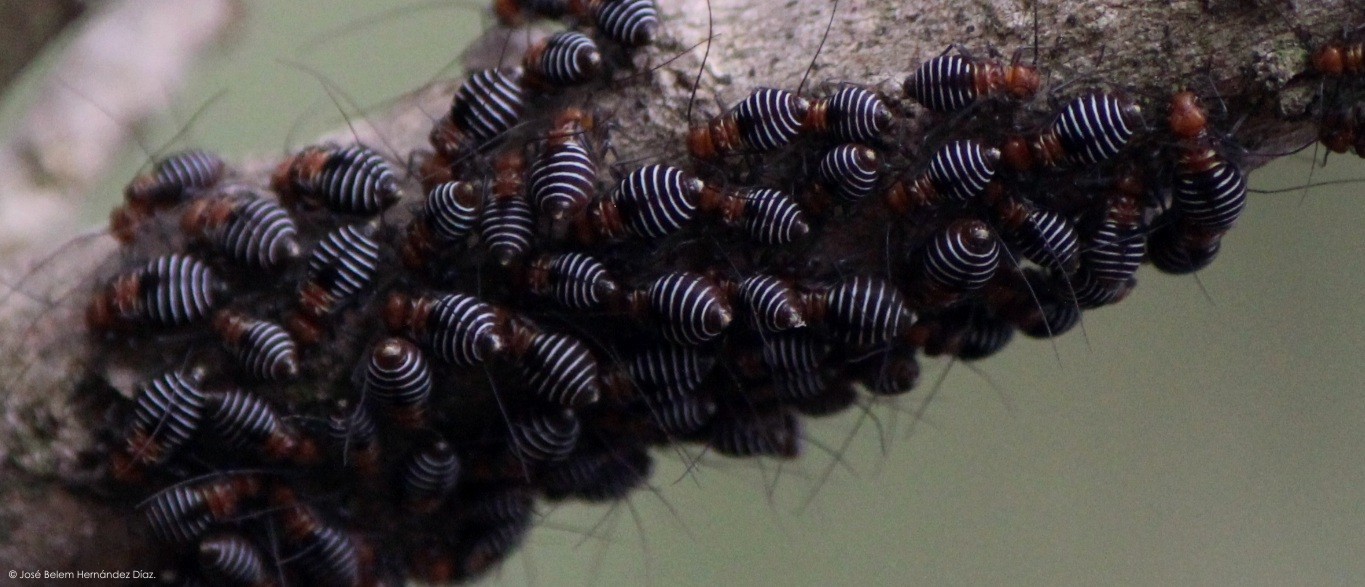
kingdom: Animalia
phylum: Arthropoda
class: Insecta
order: Psocodea
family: Psocidae
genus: Cerastipsocus
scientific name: Cerastipsocus venosus
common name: Tree cattle
